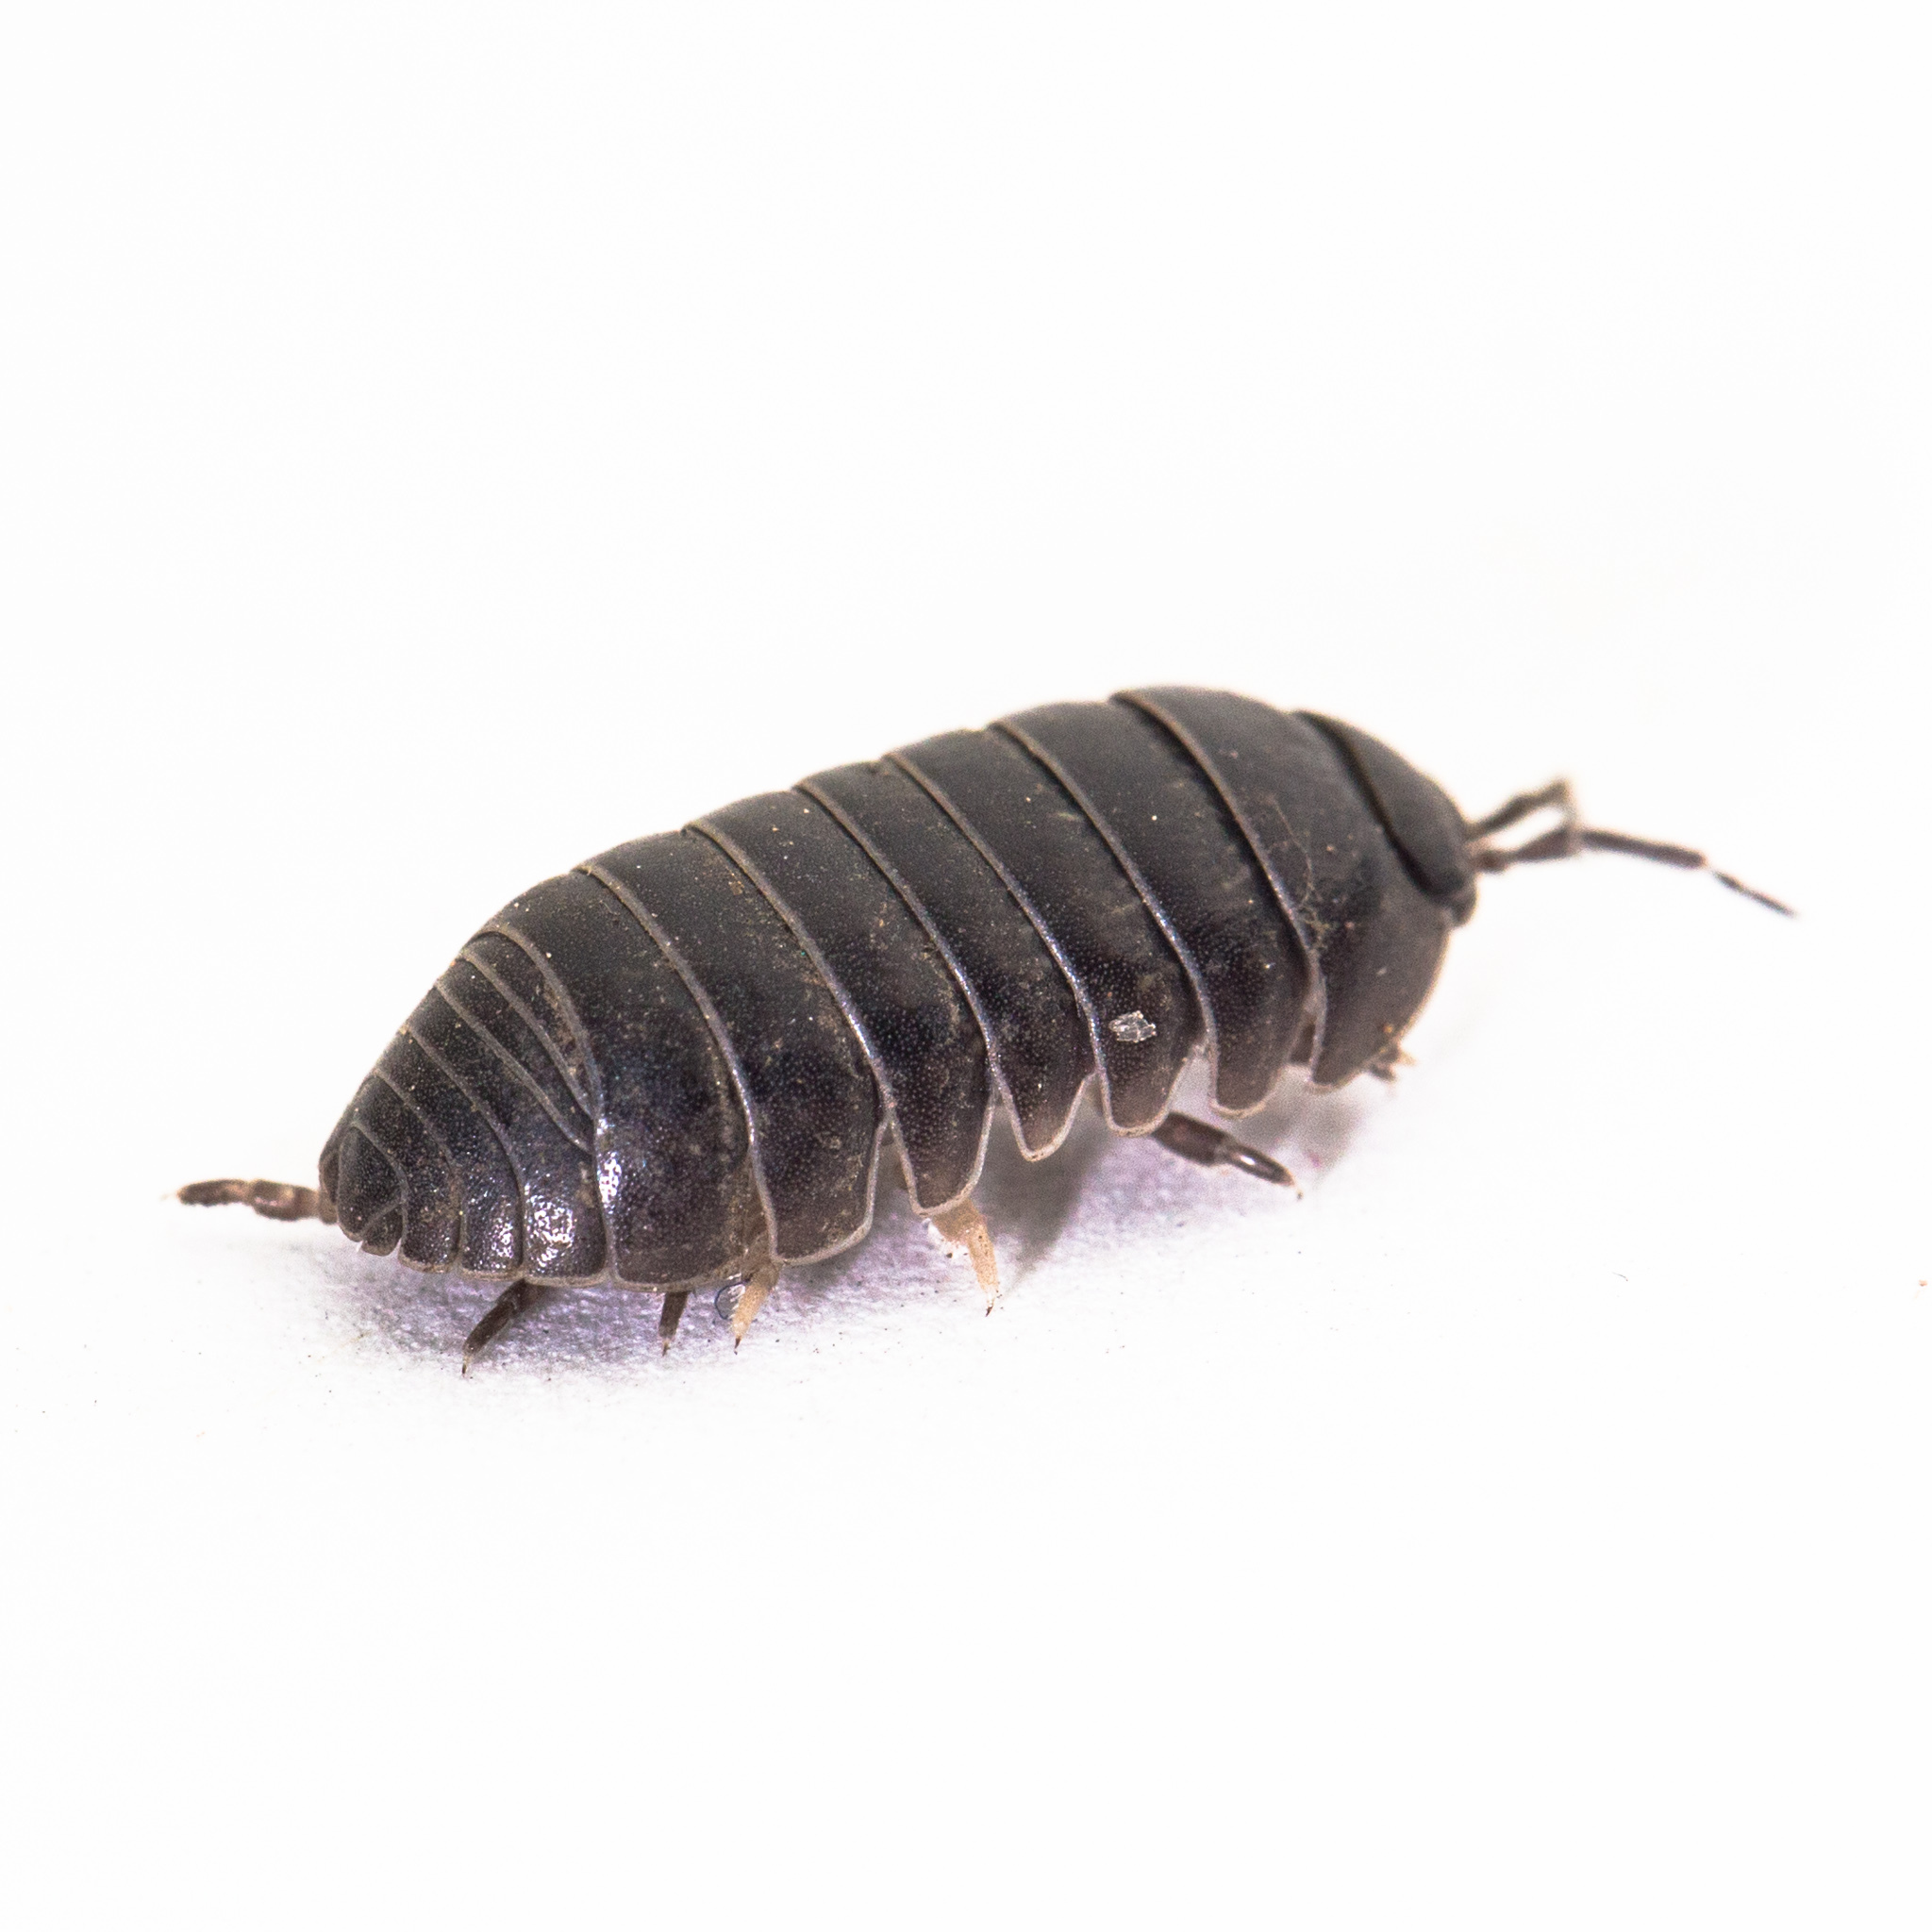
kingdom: Animalia
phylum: Arthropoda
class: Malacostraca
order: Isopoda
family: Armadillidiidae
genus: Armadillidium
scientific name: Armadillidium vulgare
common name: Common pill woodlouse
